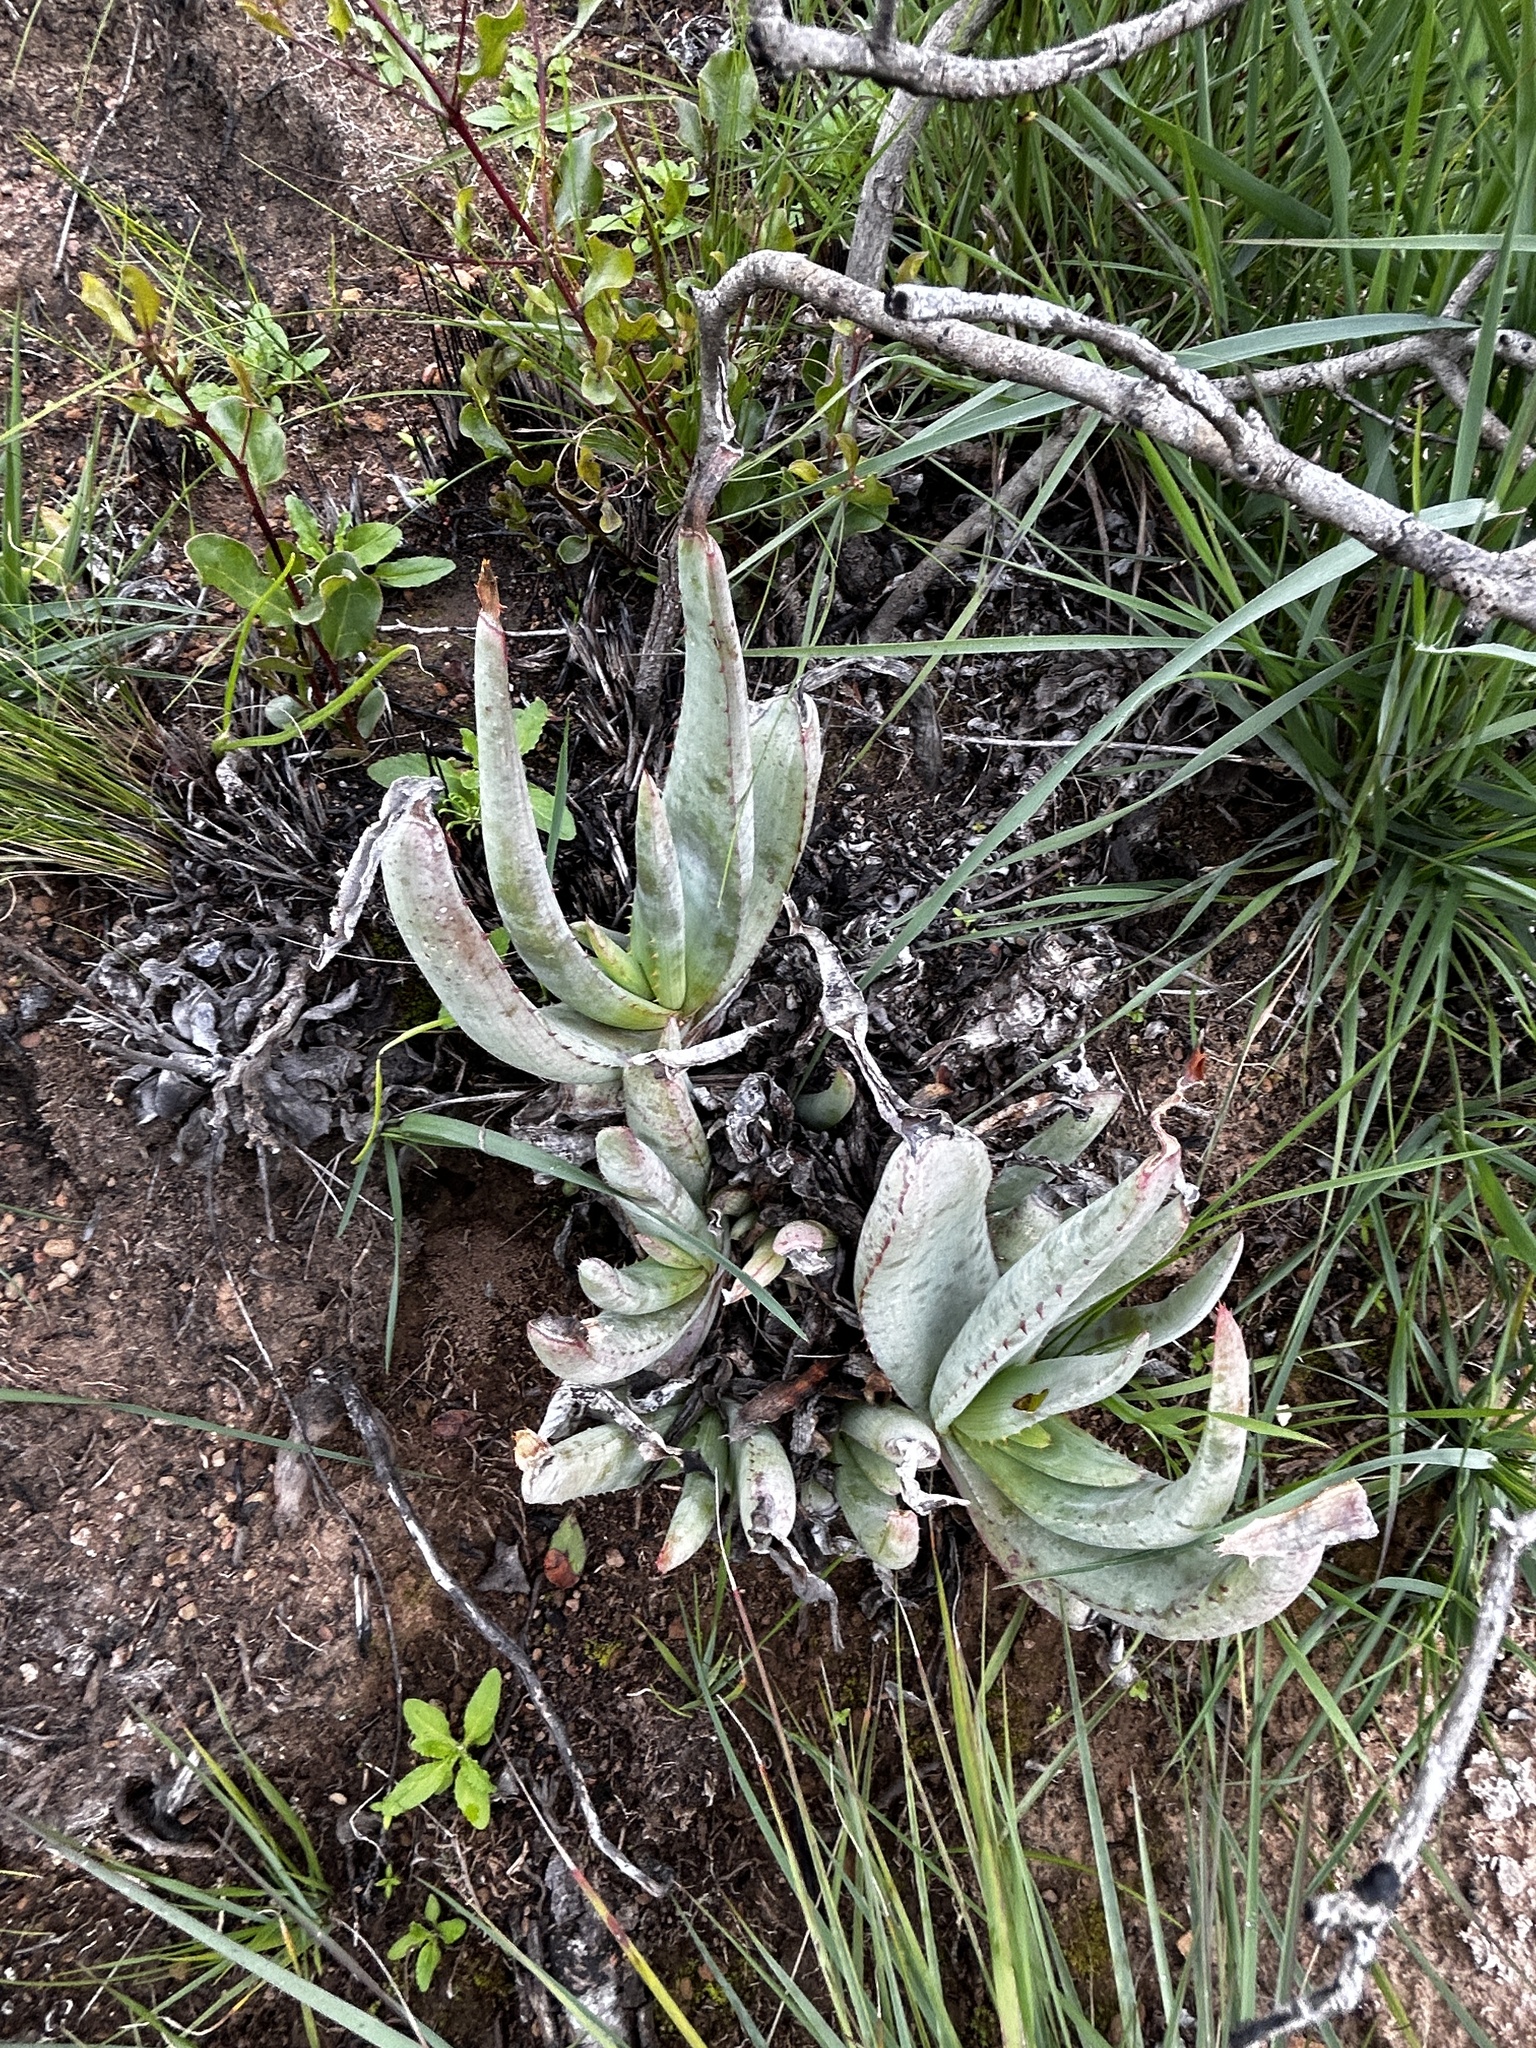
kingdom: Plantae
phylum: Tracheophyta
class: Liliopsida
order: Asparagales
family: Asphodelaceae
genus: Aloe
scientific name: Aloe glauca
